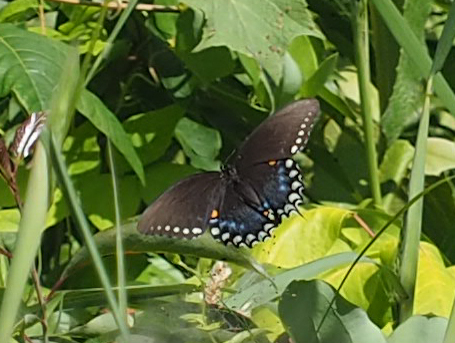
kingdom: Animalia
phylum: Arthropoda
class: Insecta
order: Lepidoptera
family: Papilionidae
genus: Papilio
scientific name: Papilio troilus
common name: Spicebush swallowtail
